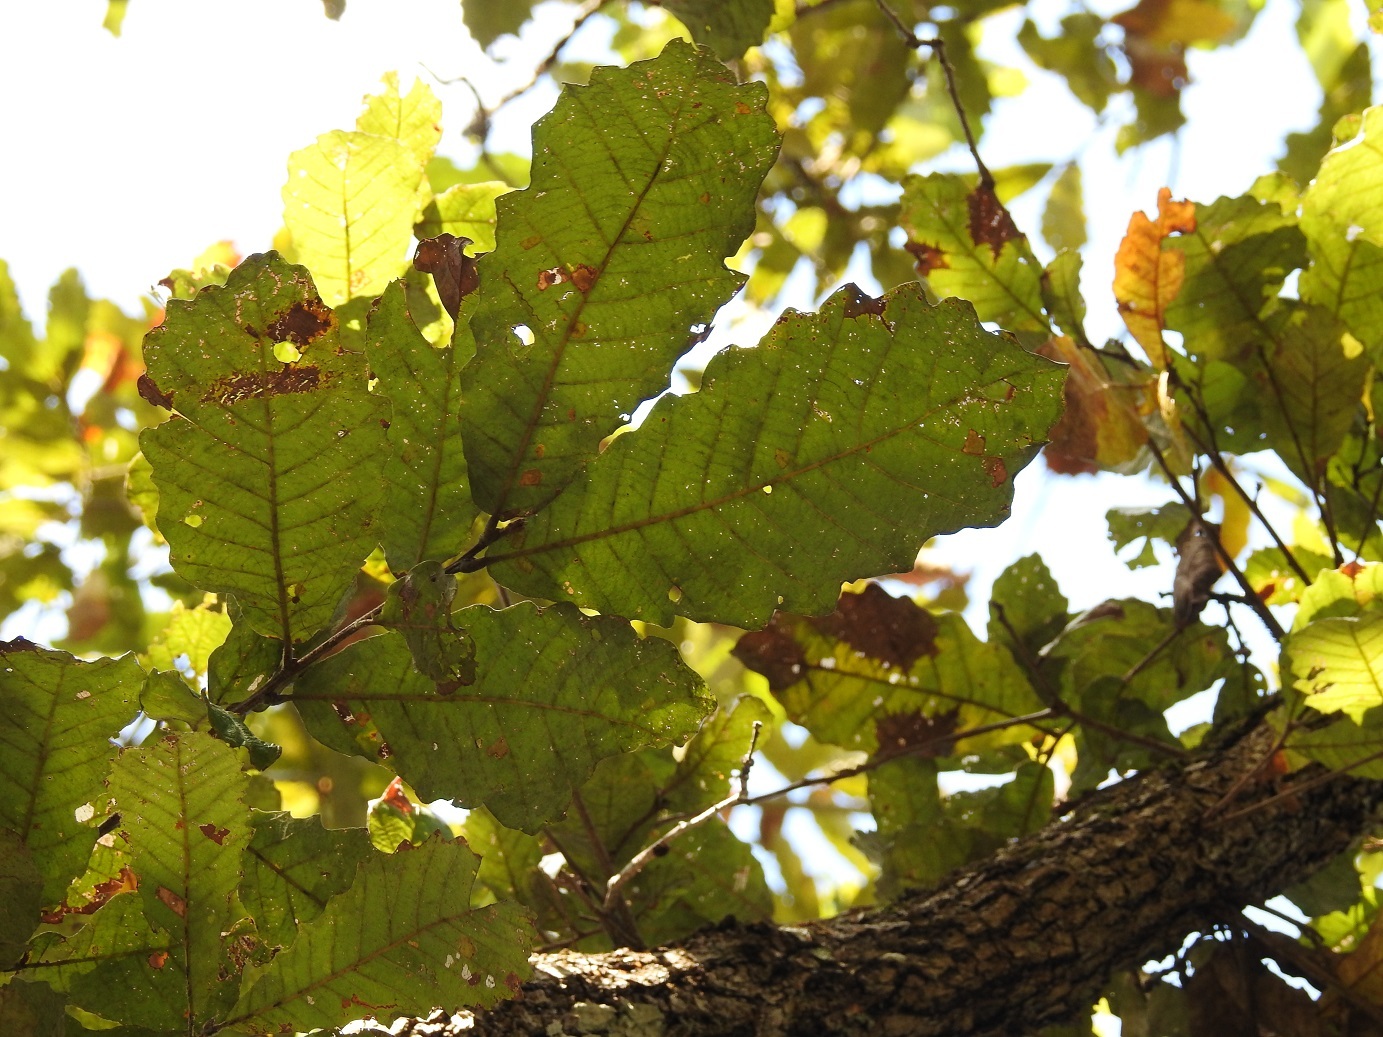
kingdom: Plantae
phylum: Tracheophyta
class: Magnoliopsida
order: Fagales
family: Fagaceae
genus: Quercus
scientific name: Quercus vicentensis
